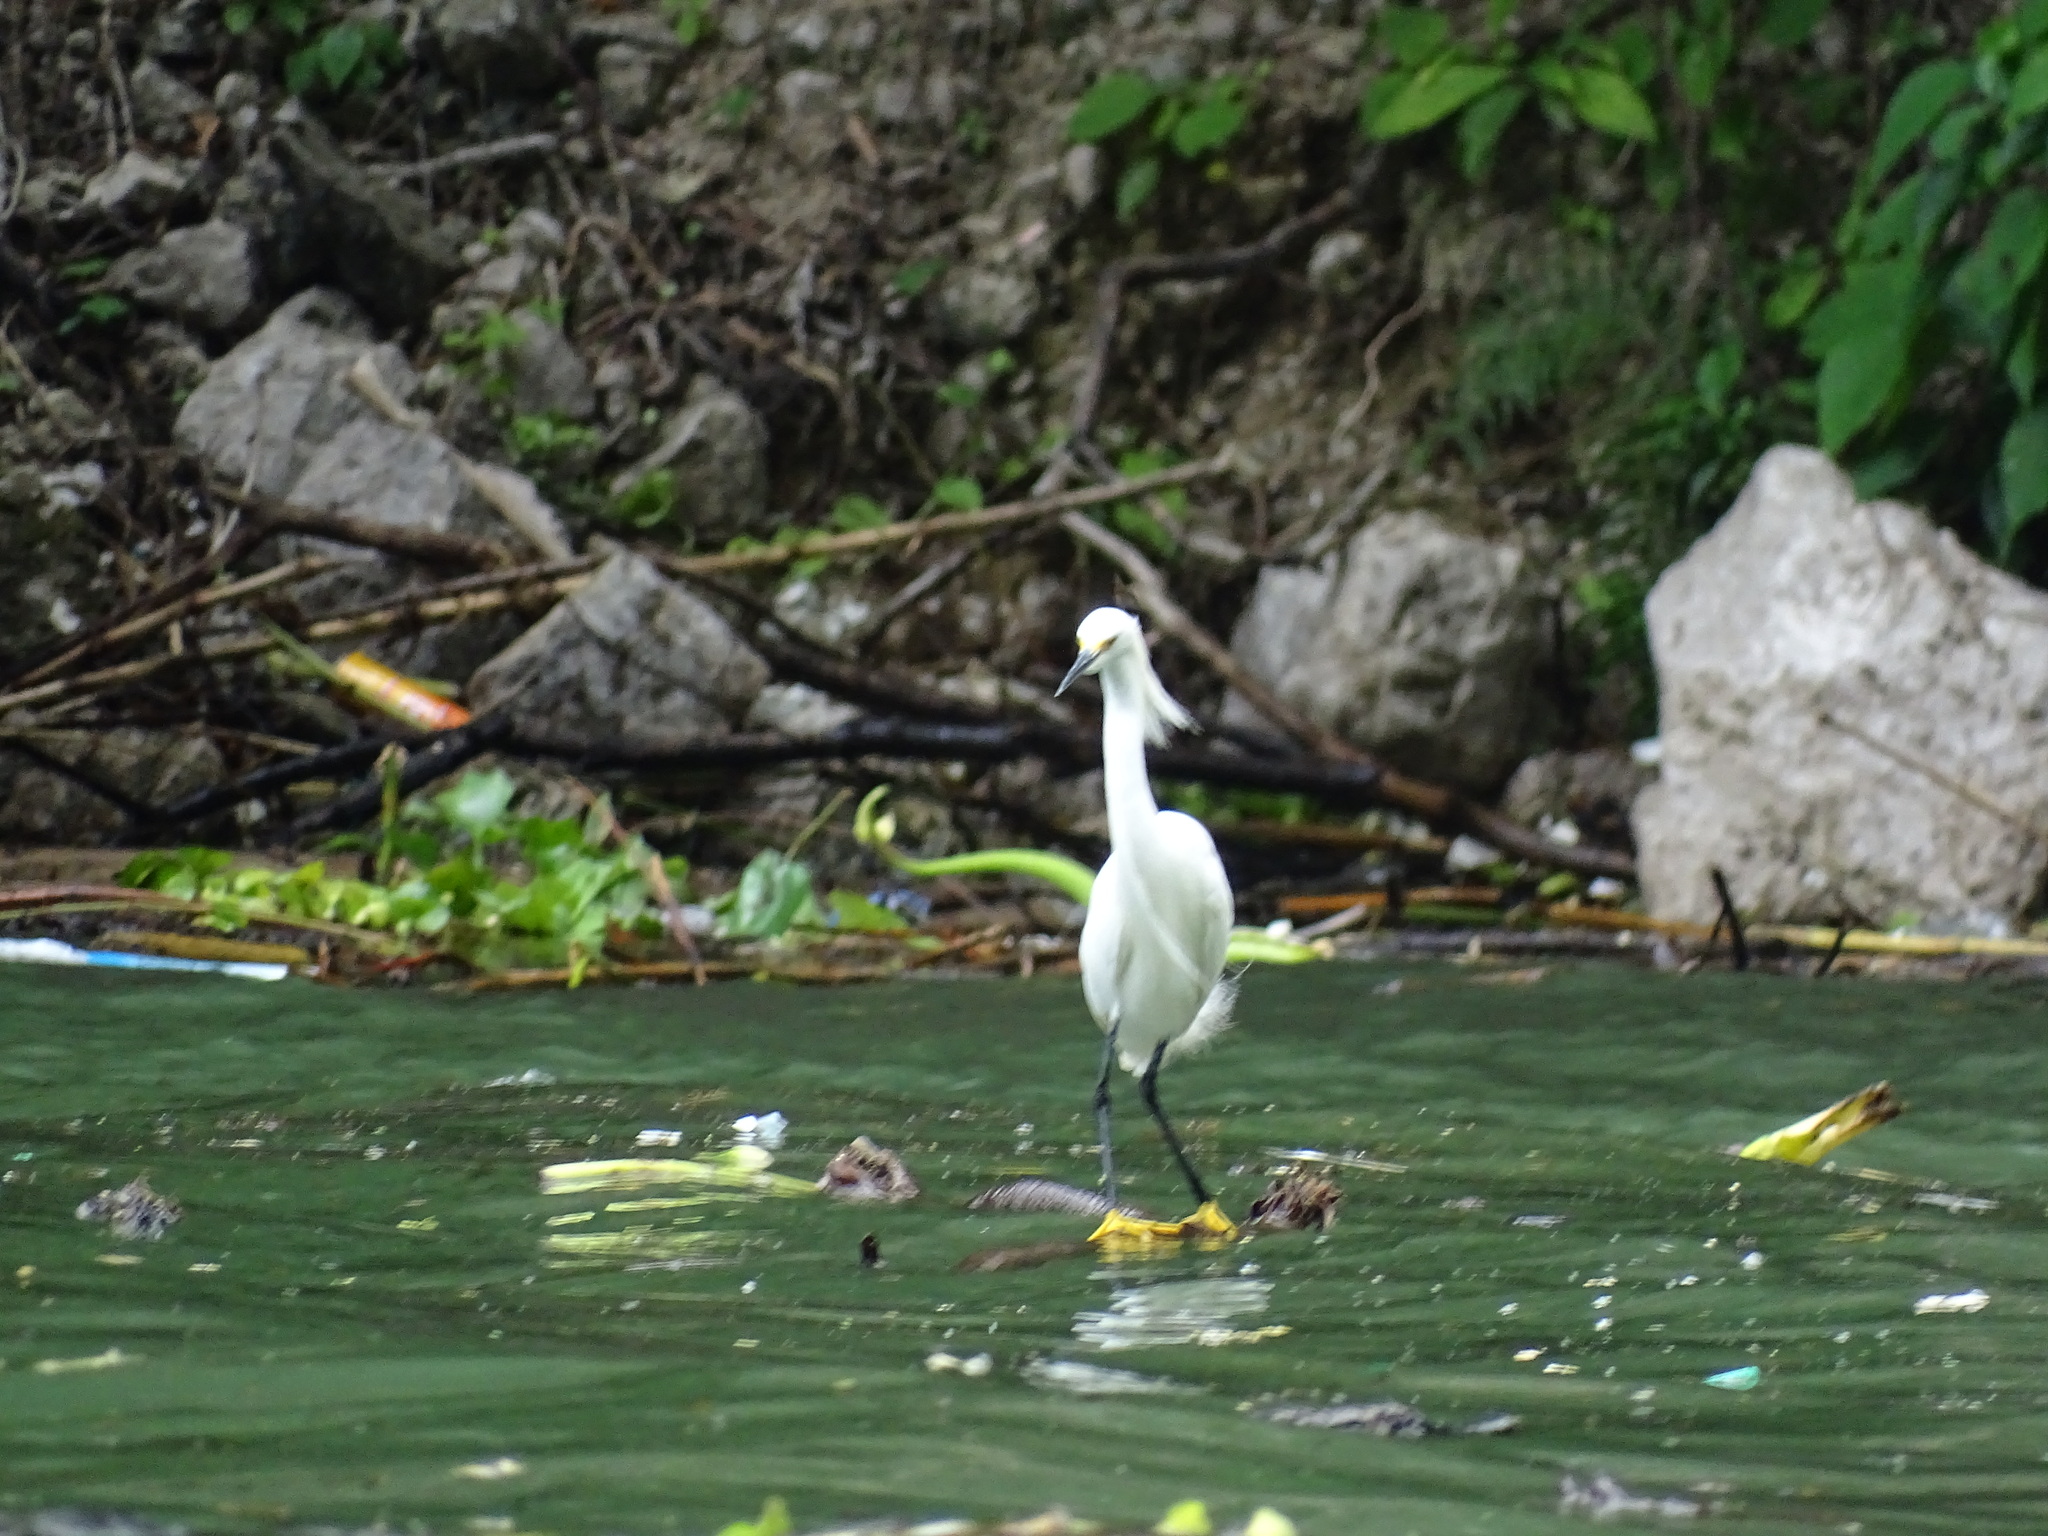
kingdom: Animalia
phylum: Chordata
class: Aves
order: Pelecaniformes
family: Ardeidae
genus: Egretta
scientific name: Egretta thula
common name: Snowy egret
